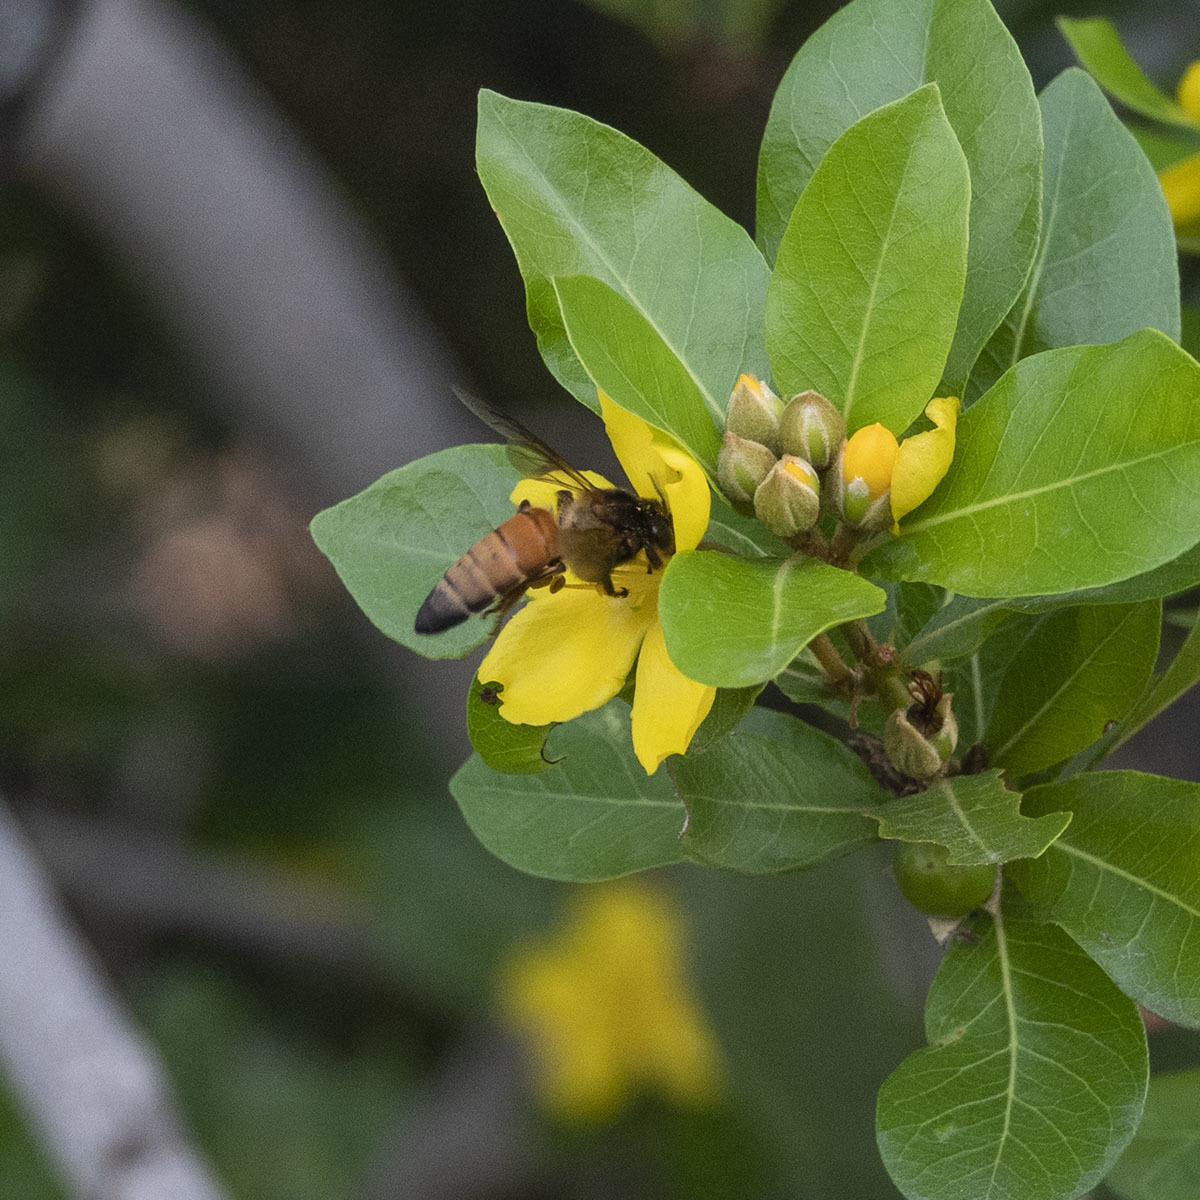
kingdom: Animalia
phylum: Arthropoda
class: Insecta
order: Hymenoptera
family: Apidae
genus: Apis
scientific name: Apis dorsata
